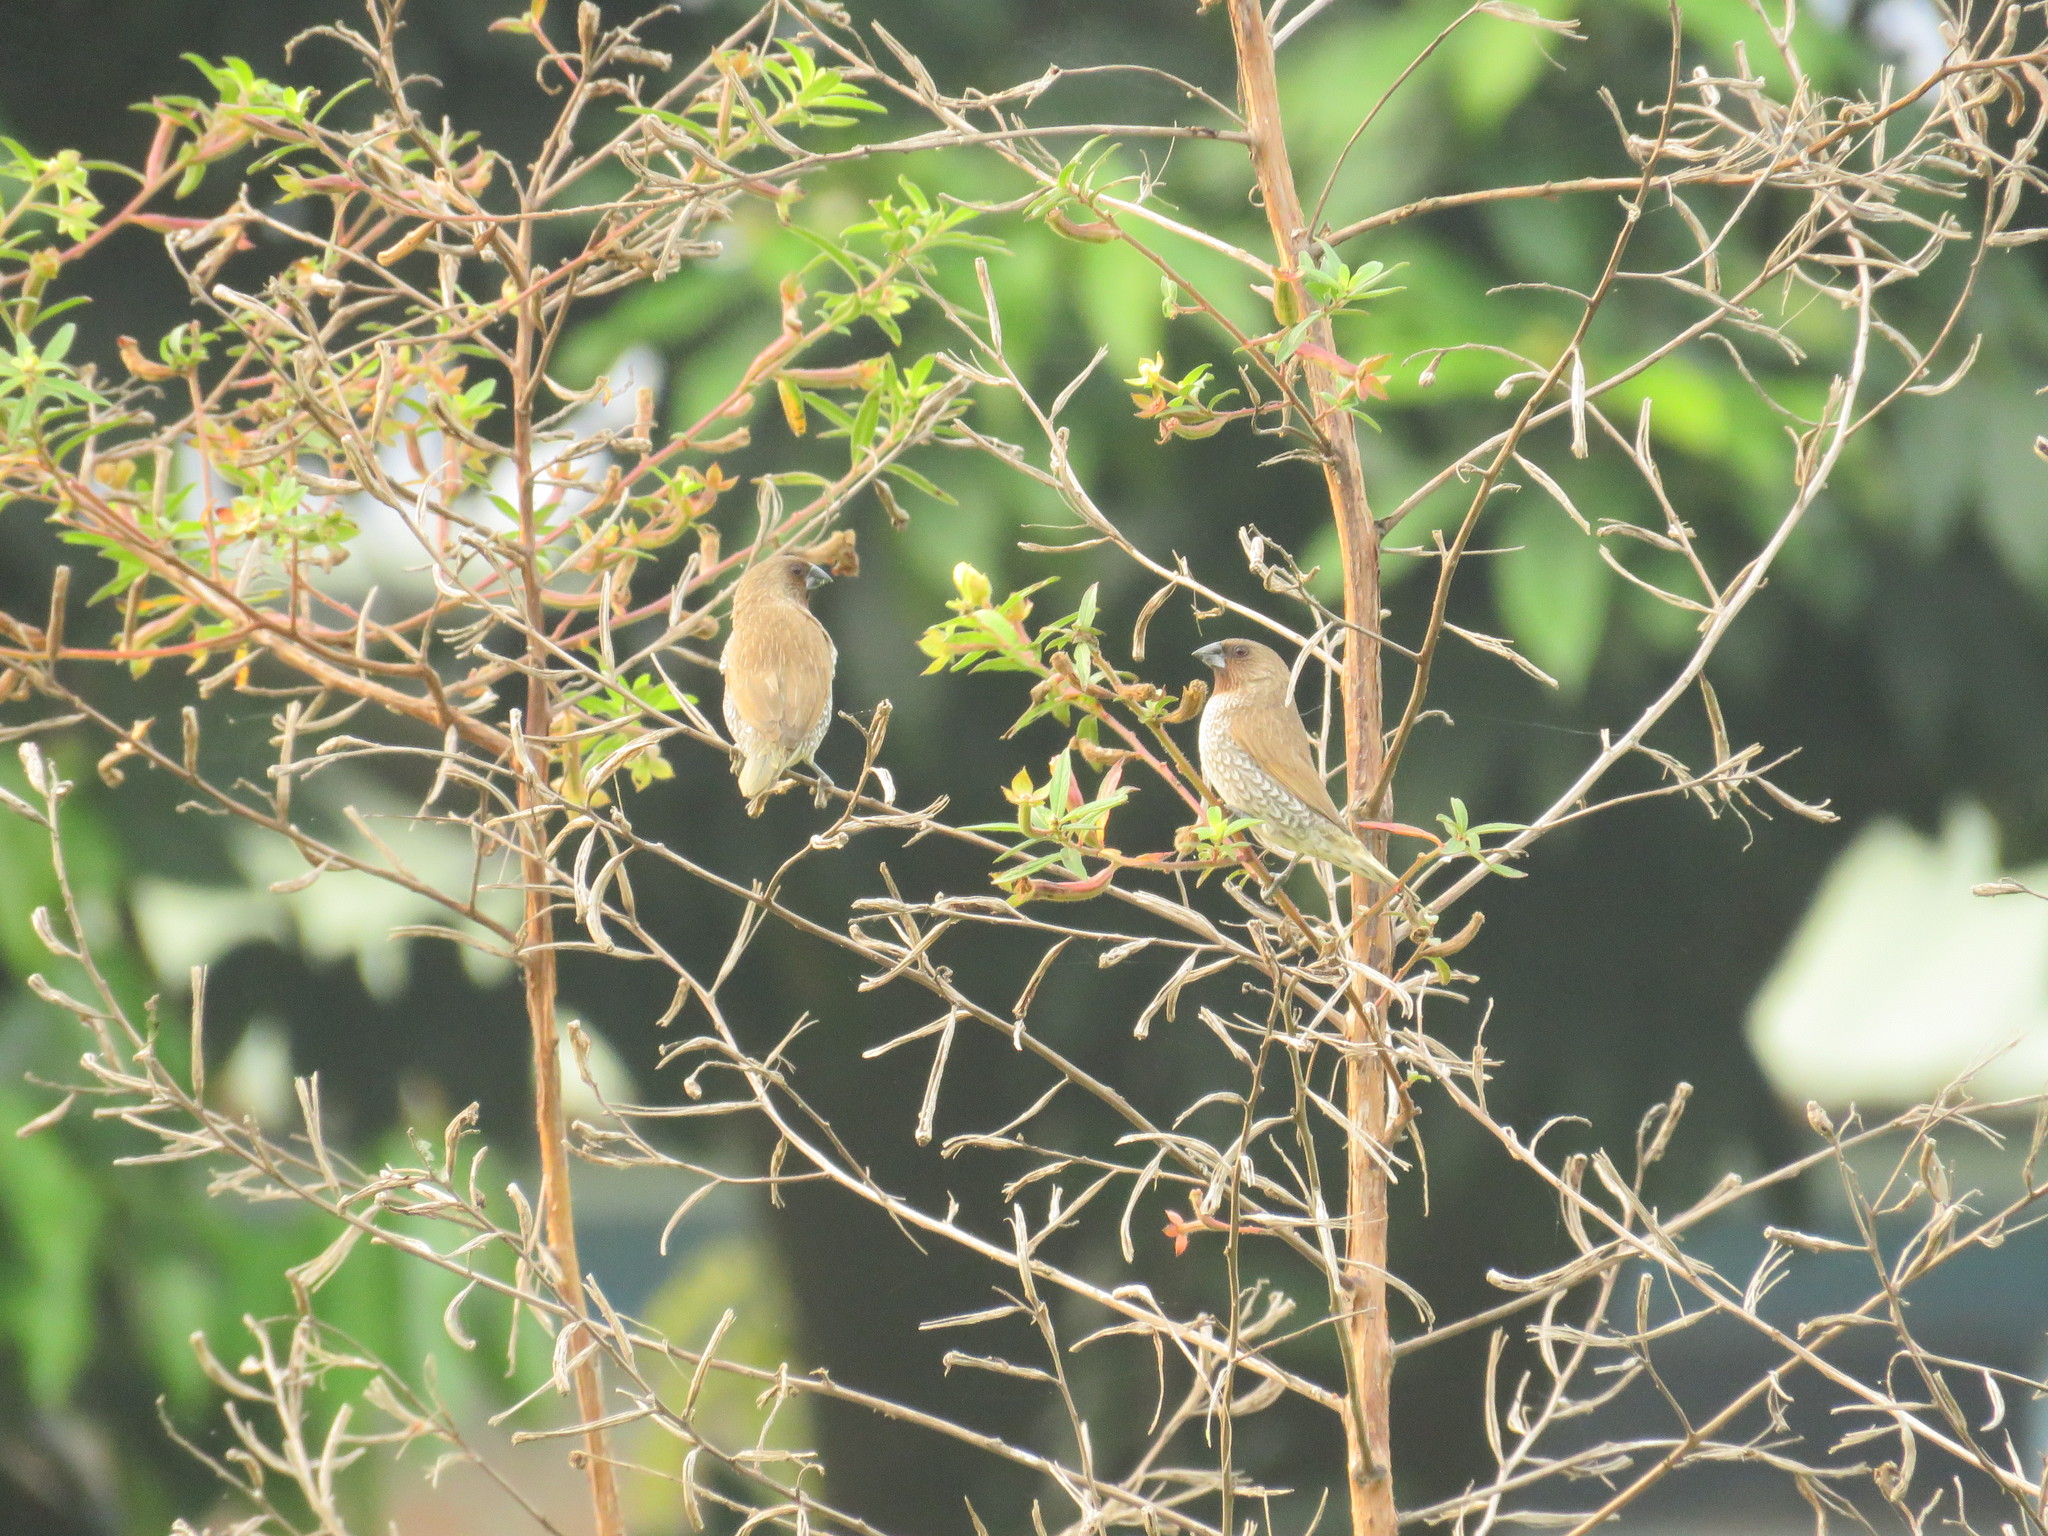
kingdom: Animalia
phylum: Chordata
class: Aves
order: Passeriformes
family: Estrildidae
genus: Lonchura
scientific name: Lonchura punctulata
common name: Scaly-breasted munia
